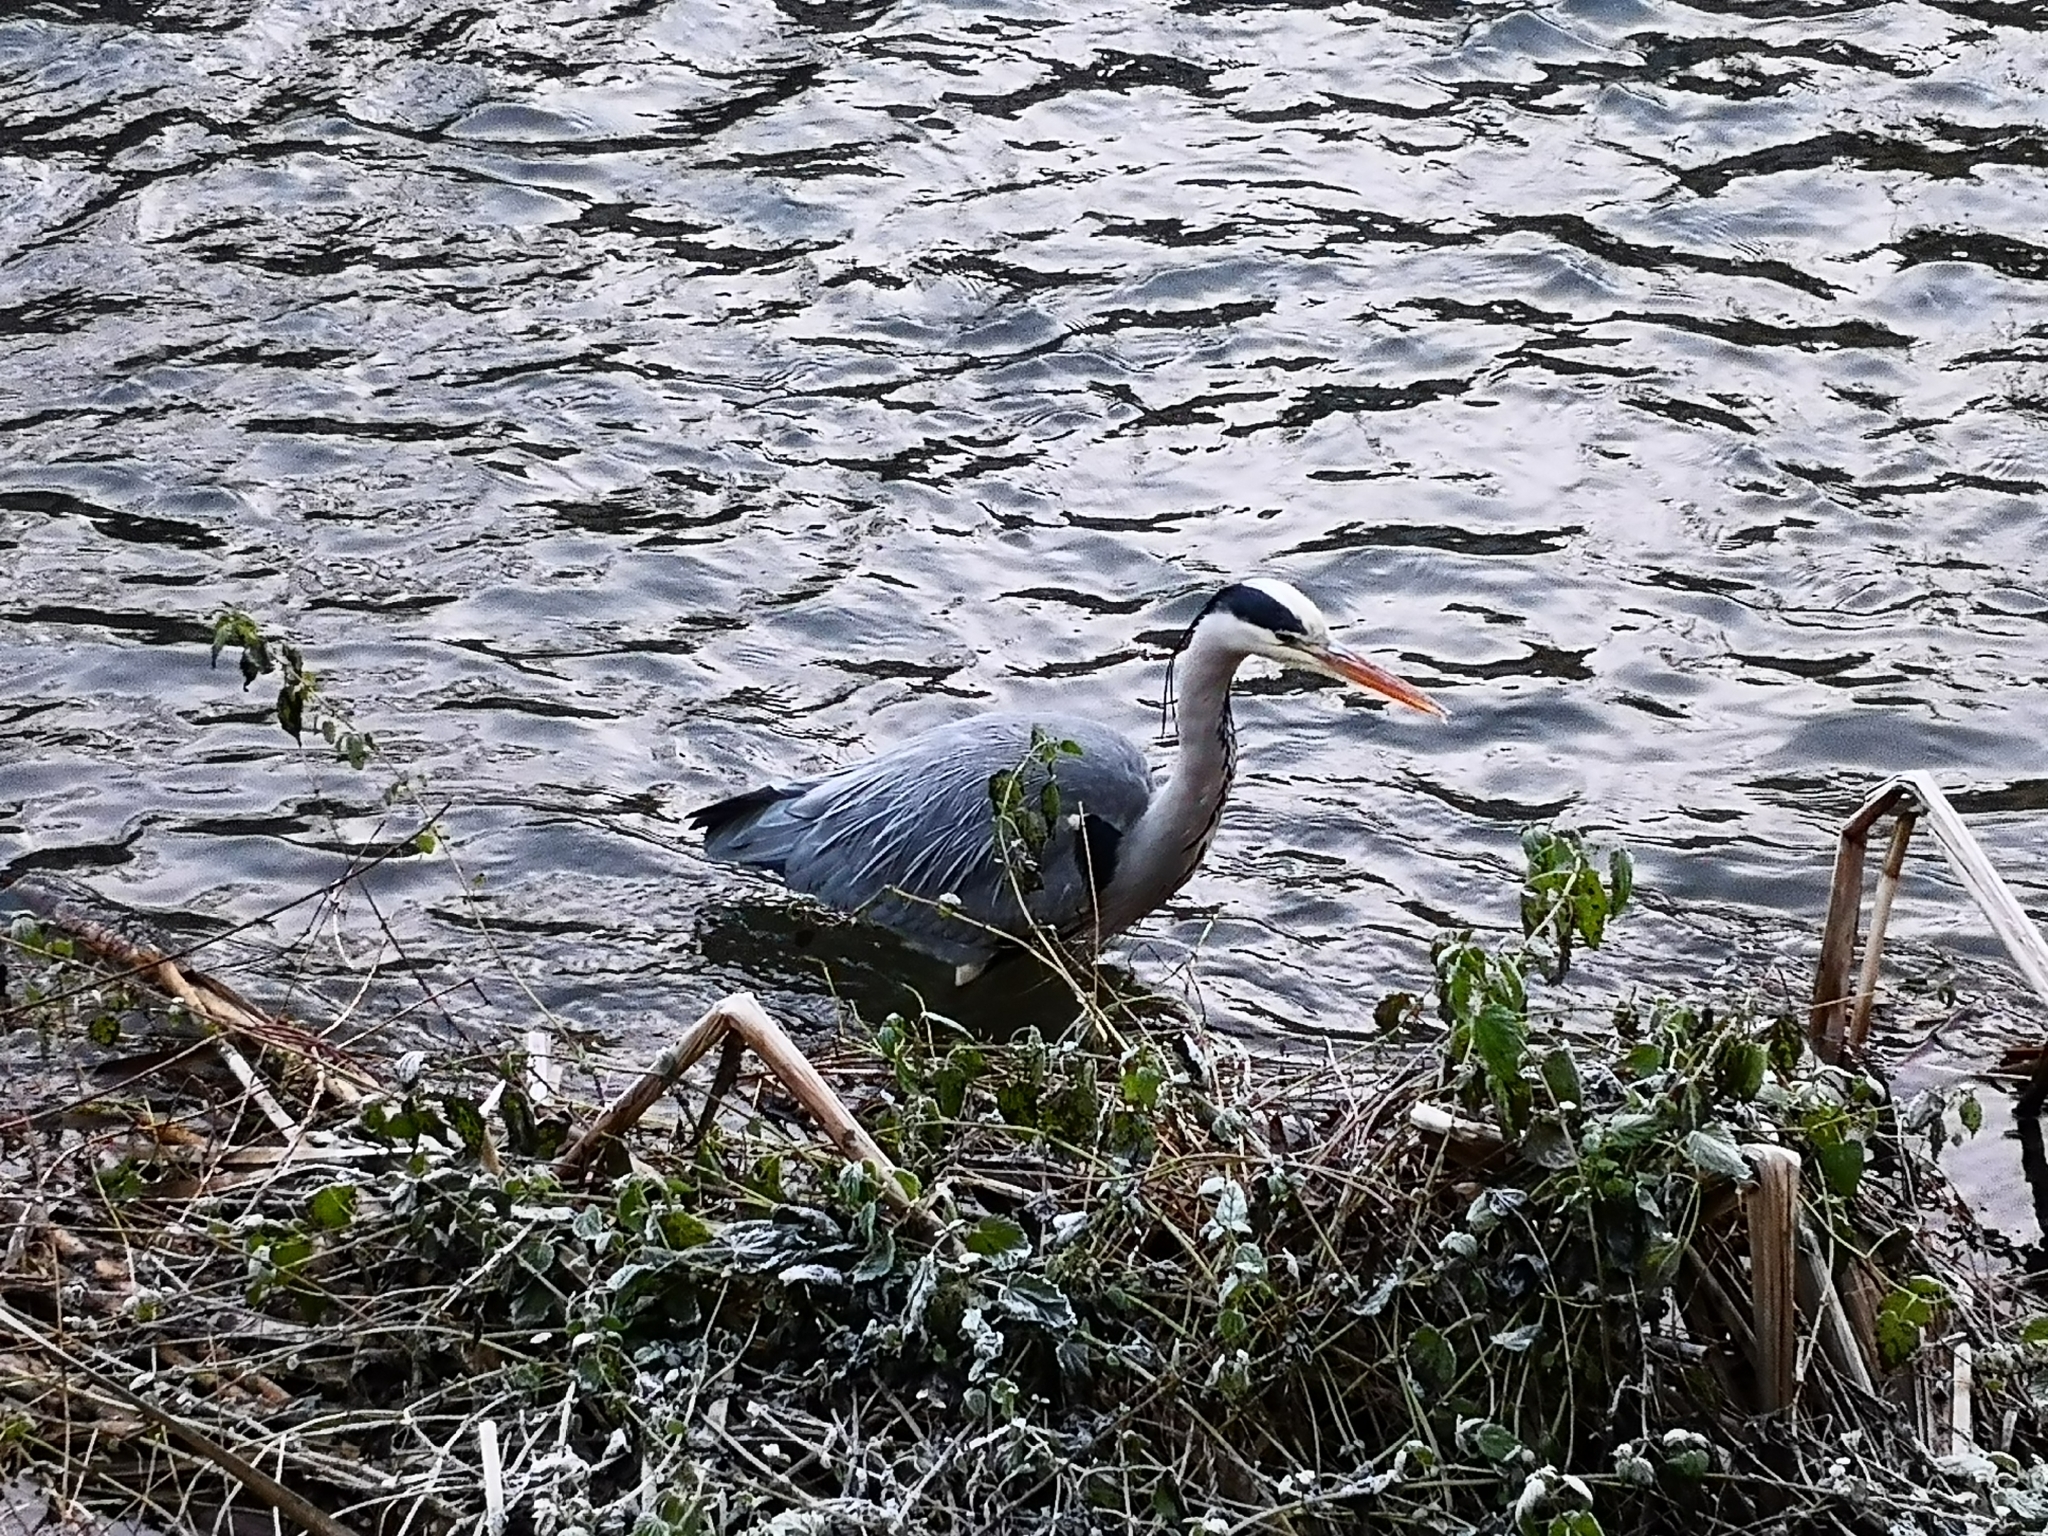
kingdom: Animalia
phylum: Chordata
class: Aves
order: Pelecaniformes
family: Ardeidae
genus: Ardea
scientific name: Ardea cinerea
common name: Grey heron
